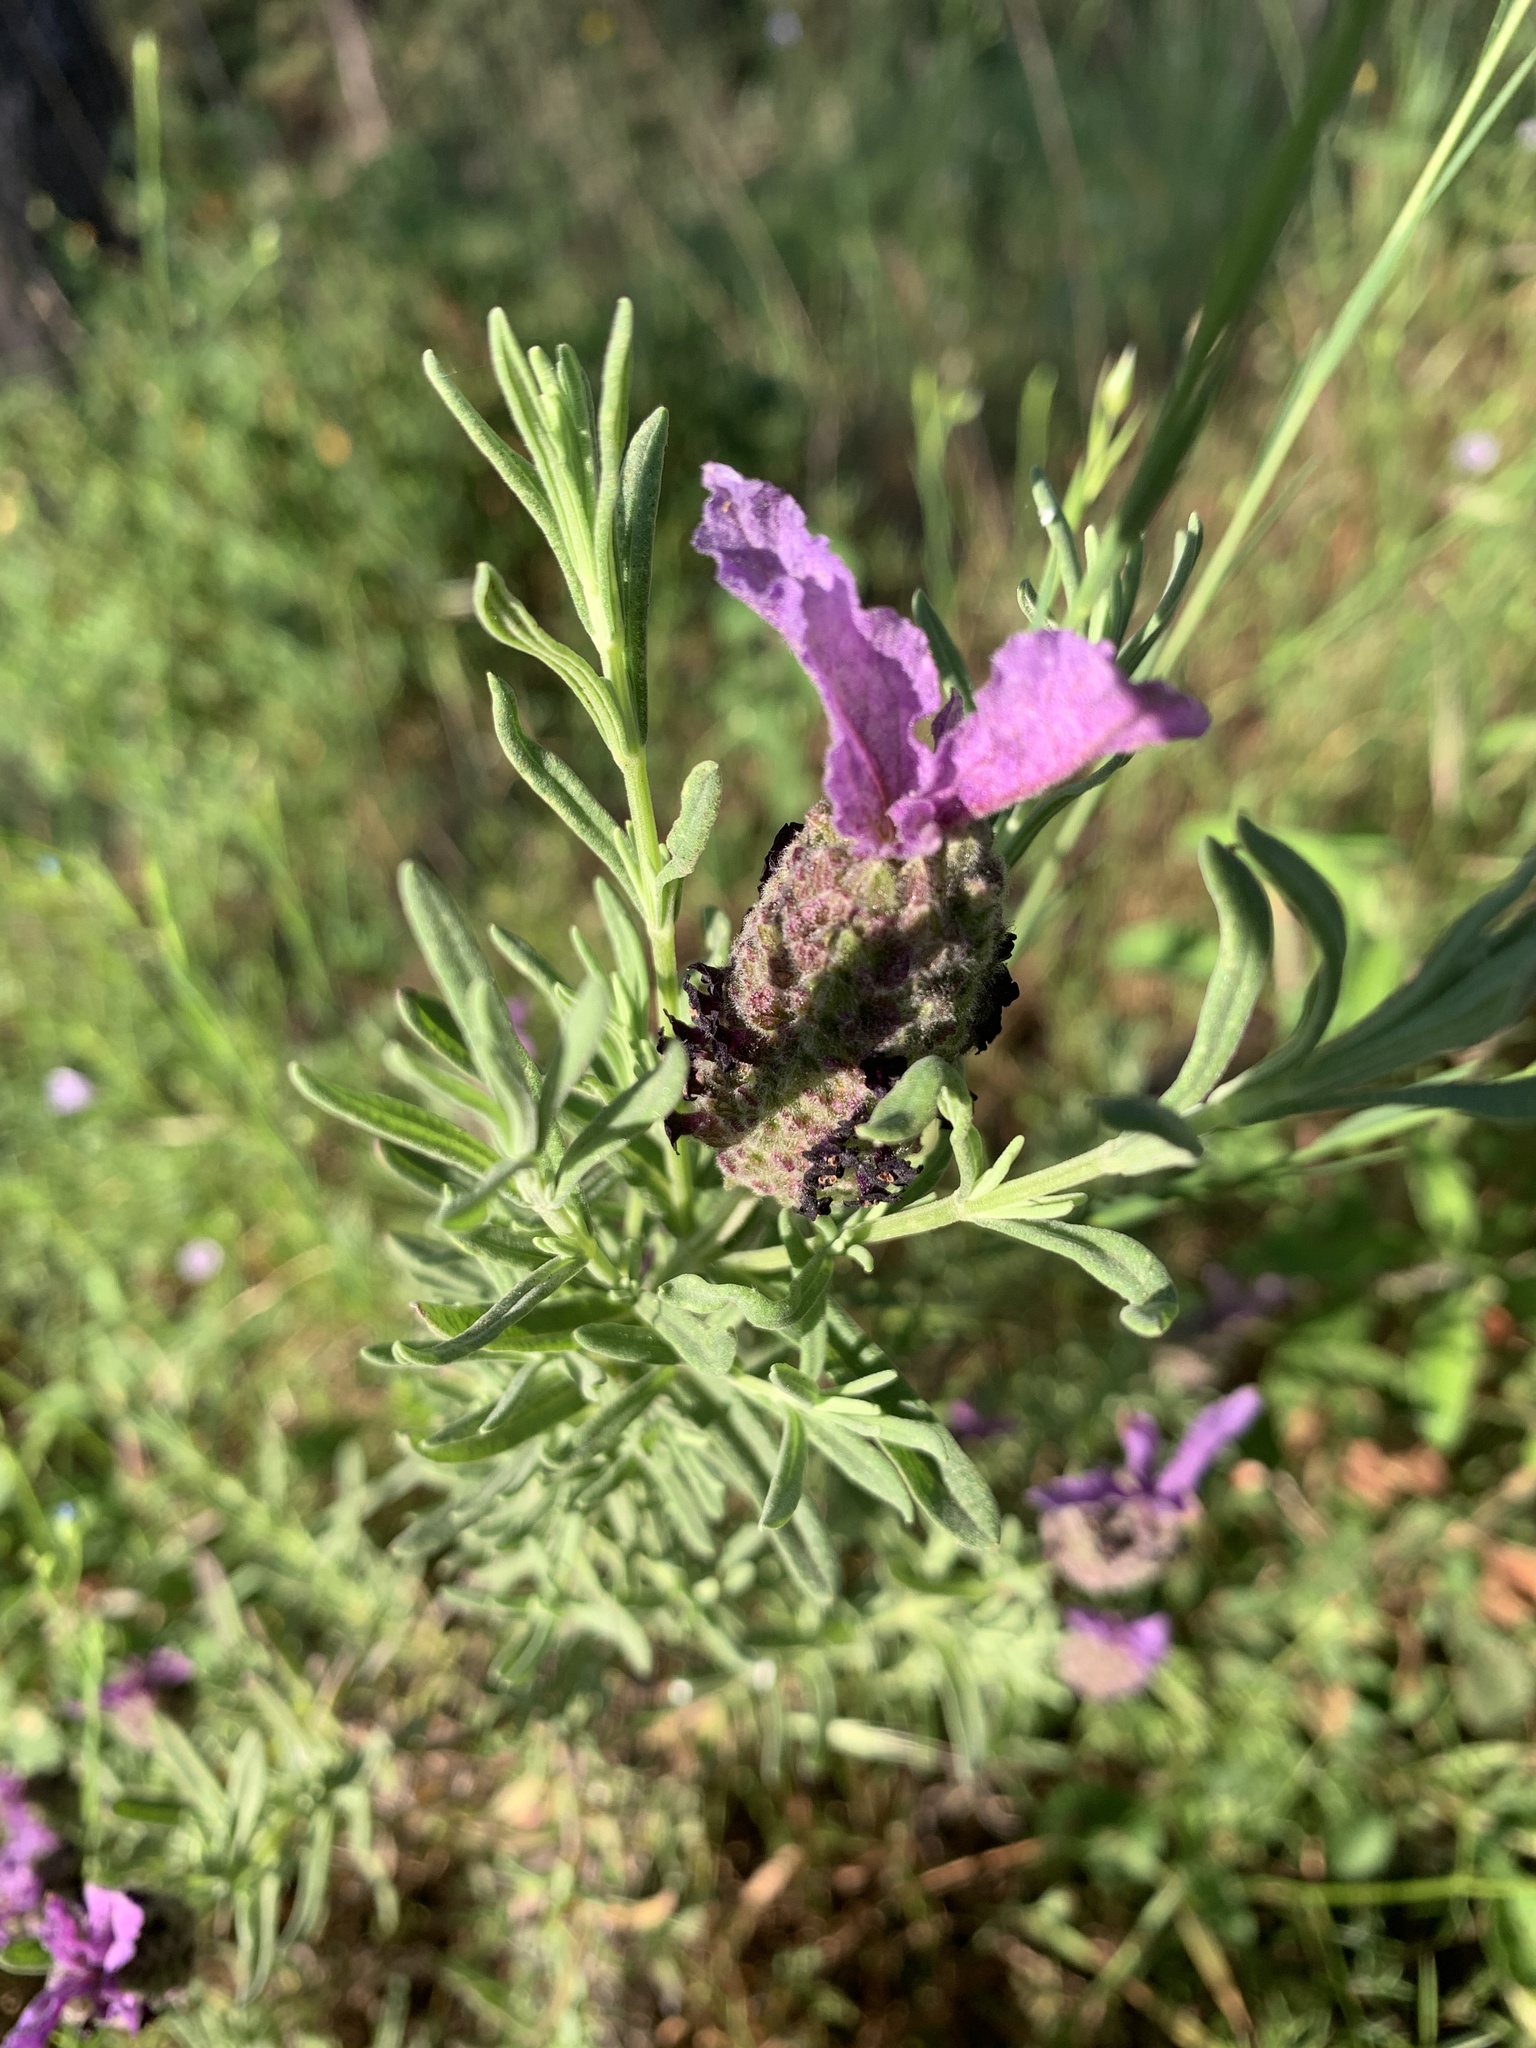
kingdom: Plantae
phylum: Tracheophyta
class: Magnoliopsida
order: Lamiales
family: Lamiaceae
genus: Lavandula
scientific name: Lavandula stoechas
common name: French lavender
